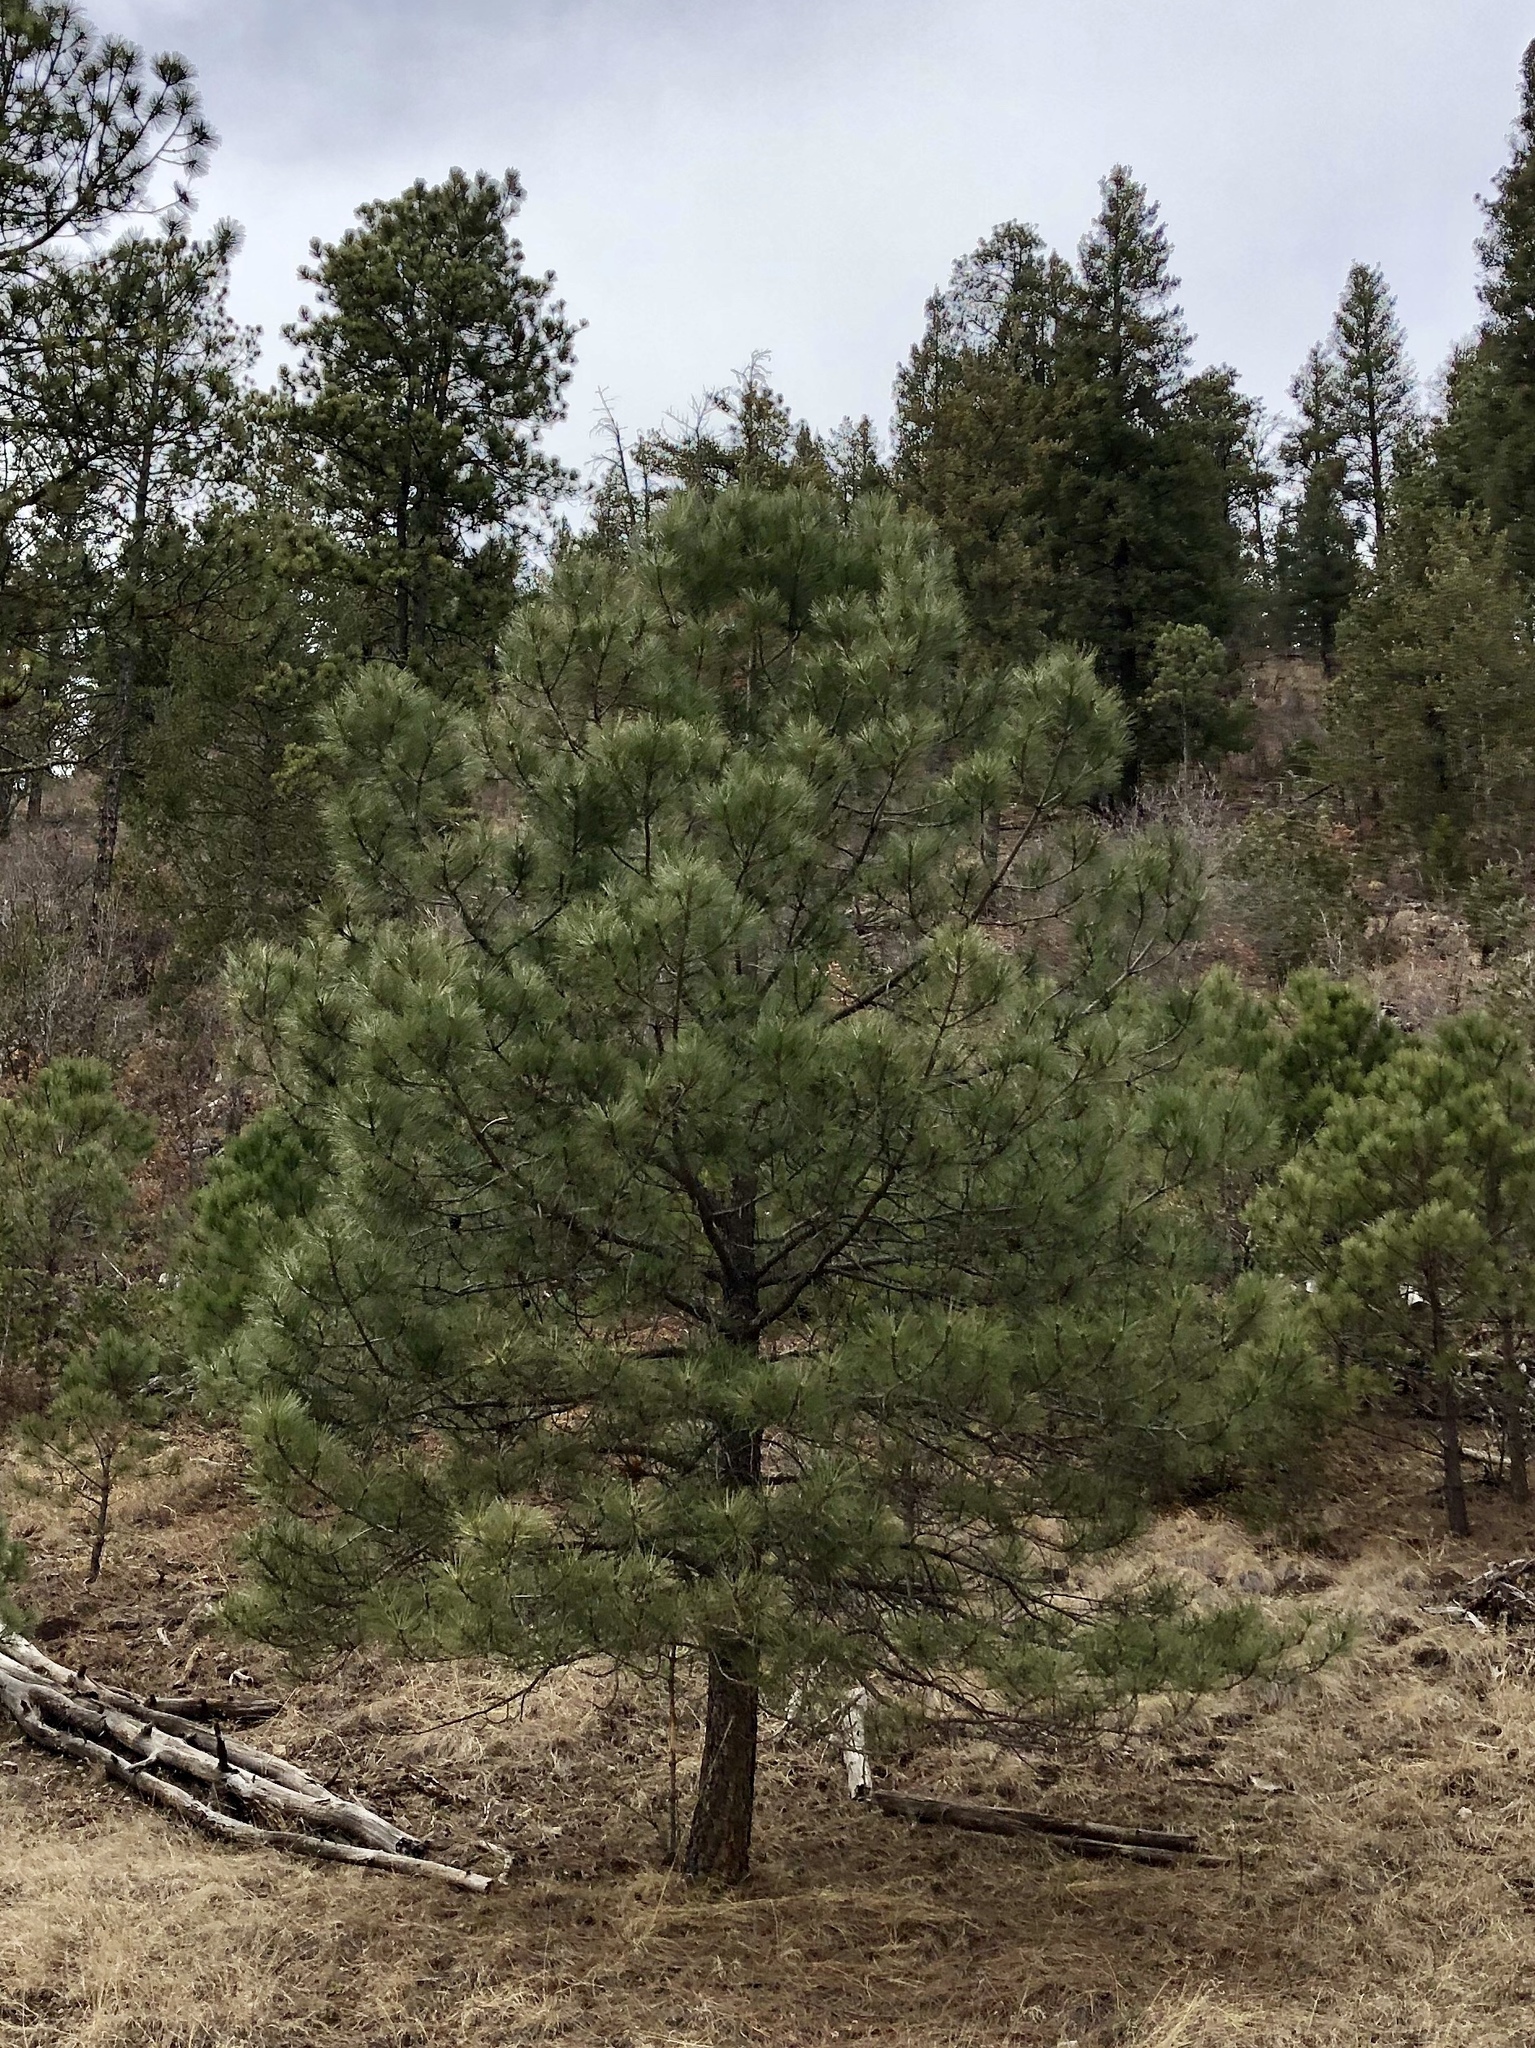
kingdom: Plantae
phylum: Tracheophyta
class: Pinopsida
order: Pinales
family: Pinaceae
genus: Pinus
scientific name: Pinus ponderosa
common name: Western yellow-pine
